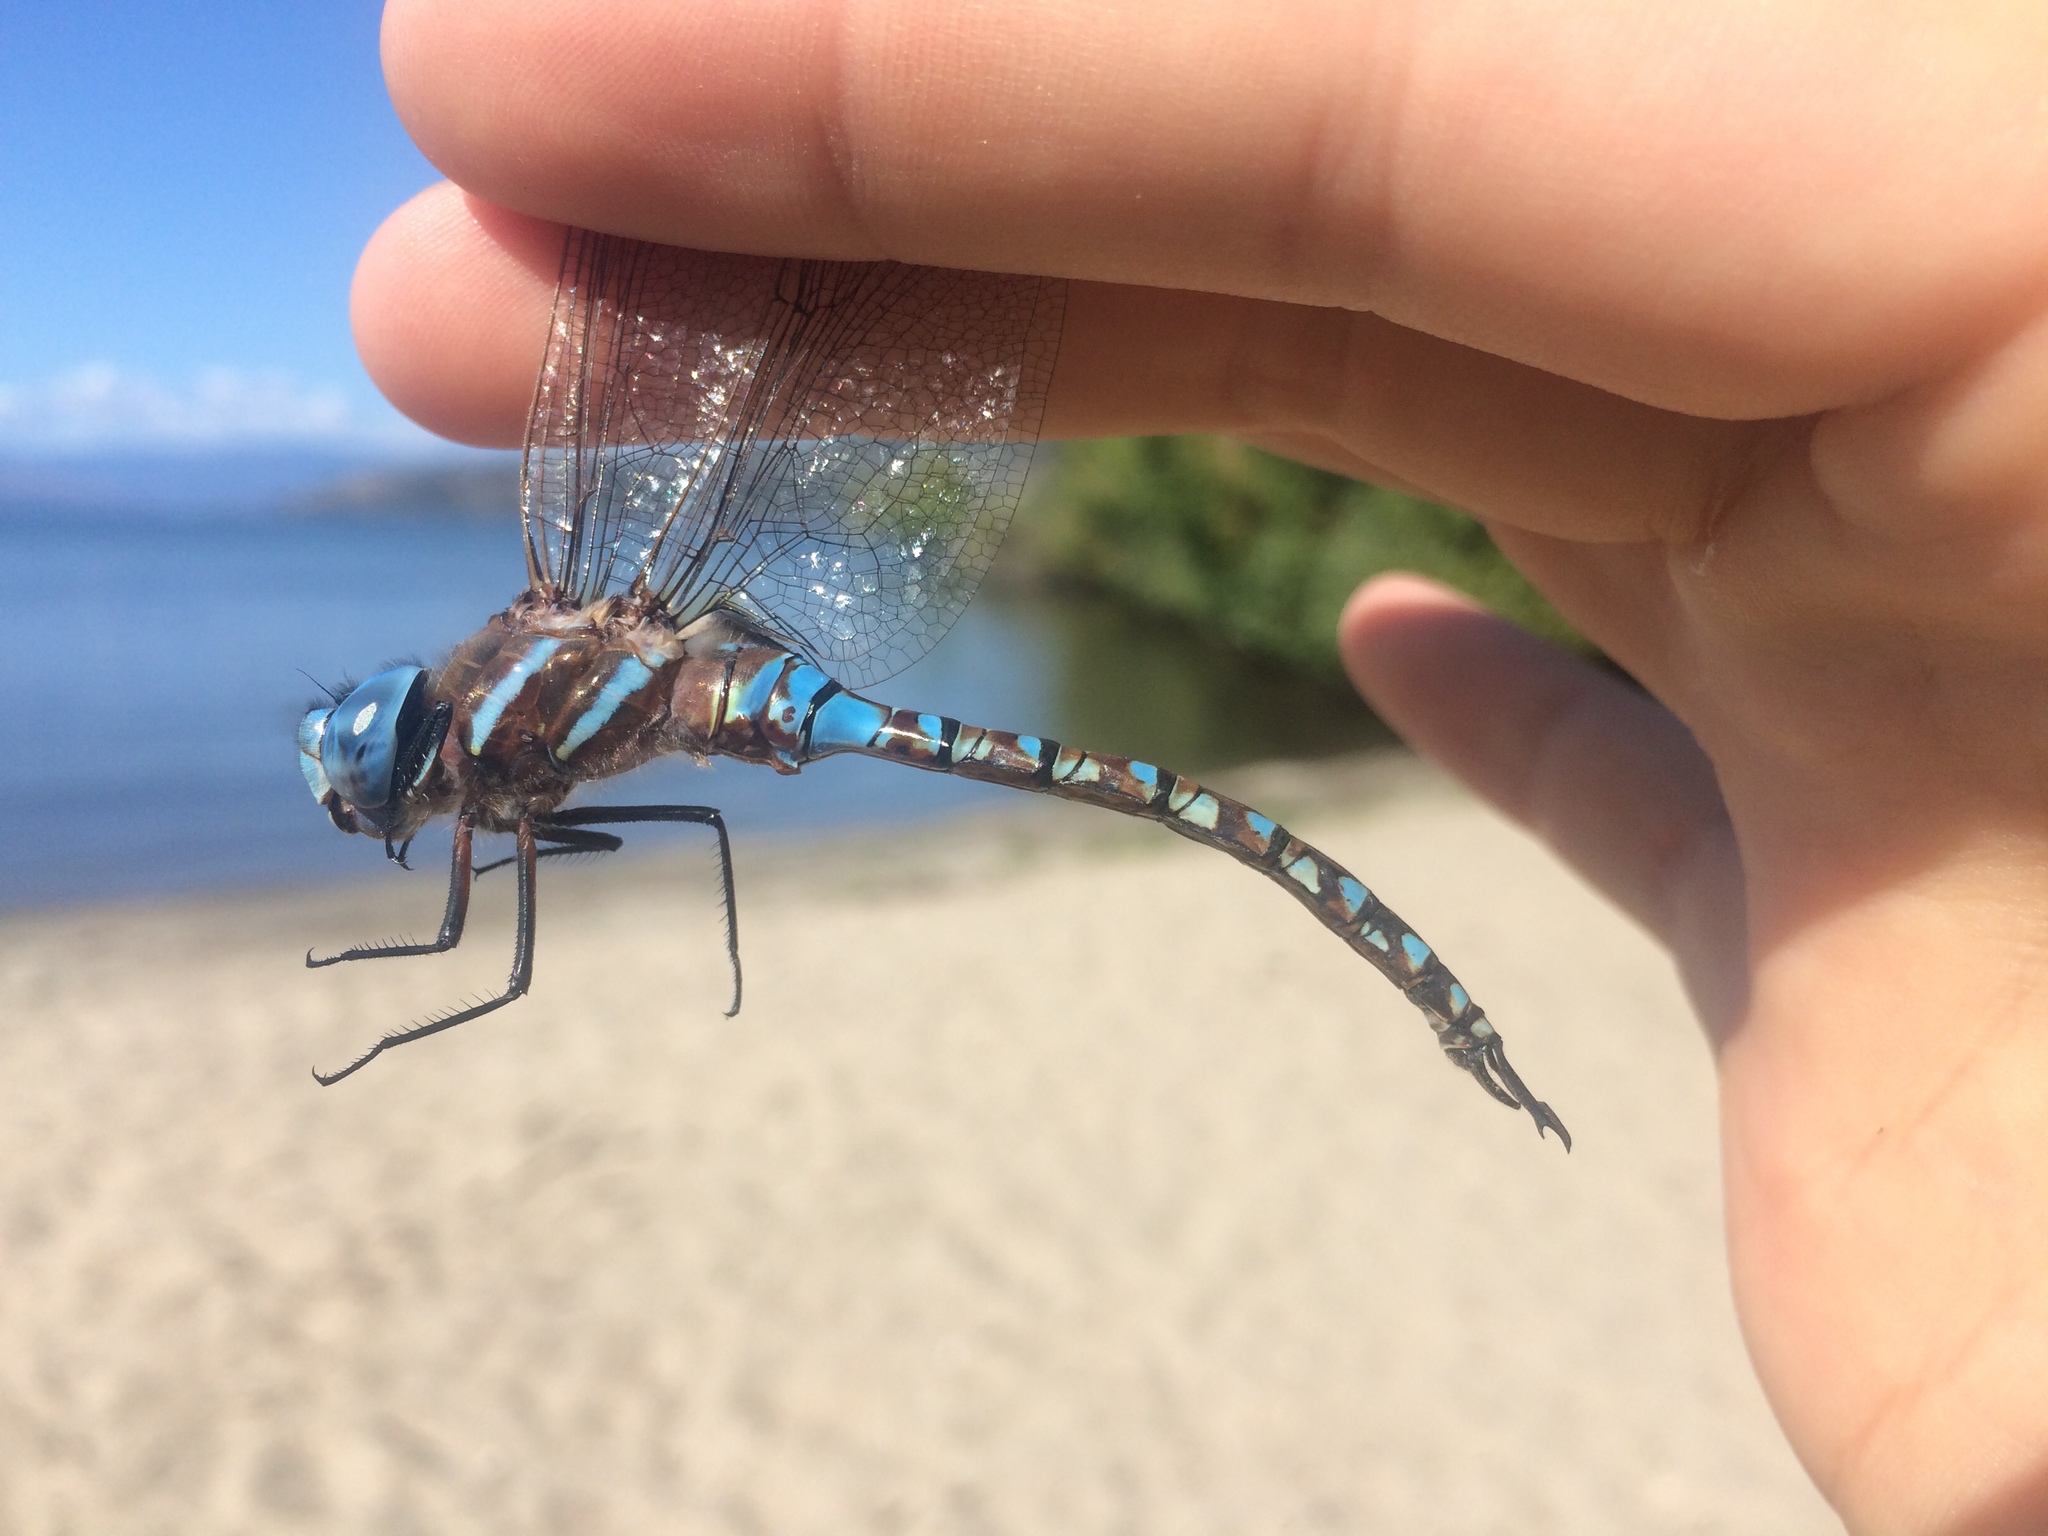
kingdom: Animalia
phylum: Arthropoda
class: Insecta
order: Odonata
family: Aeshnidae
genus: Rhionaeschna
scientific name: Rhionaeschna multicolor
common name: Blue-eyed darner
